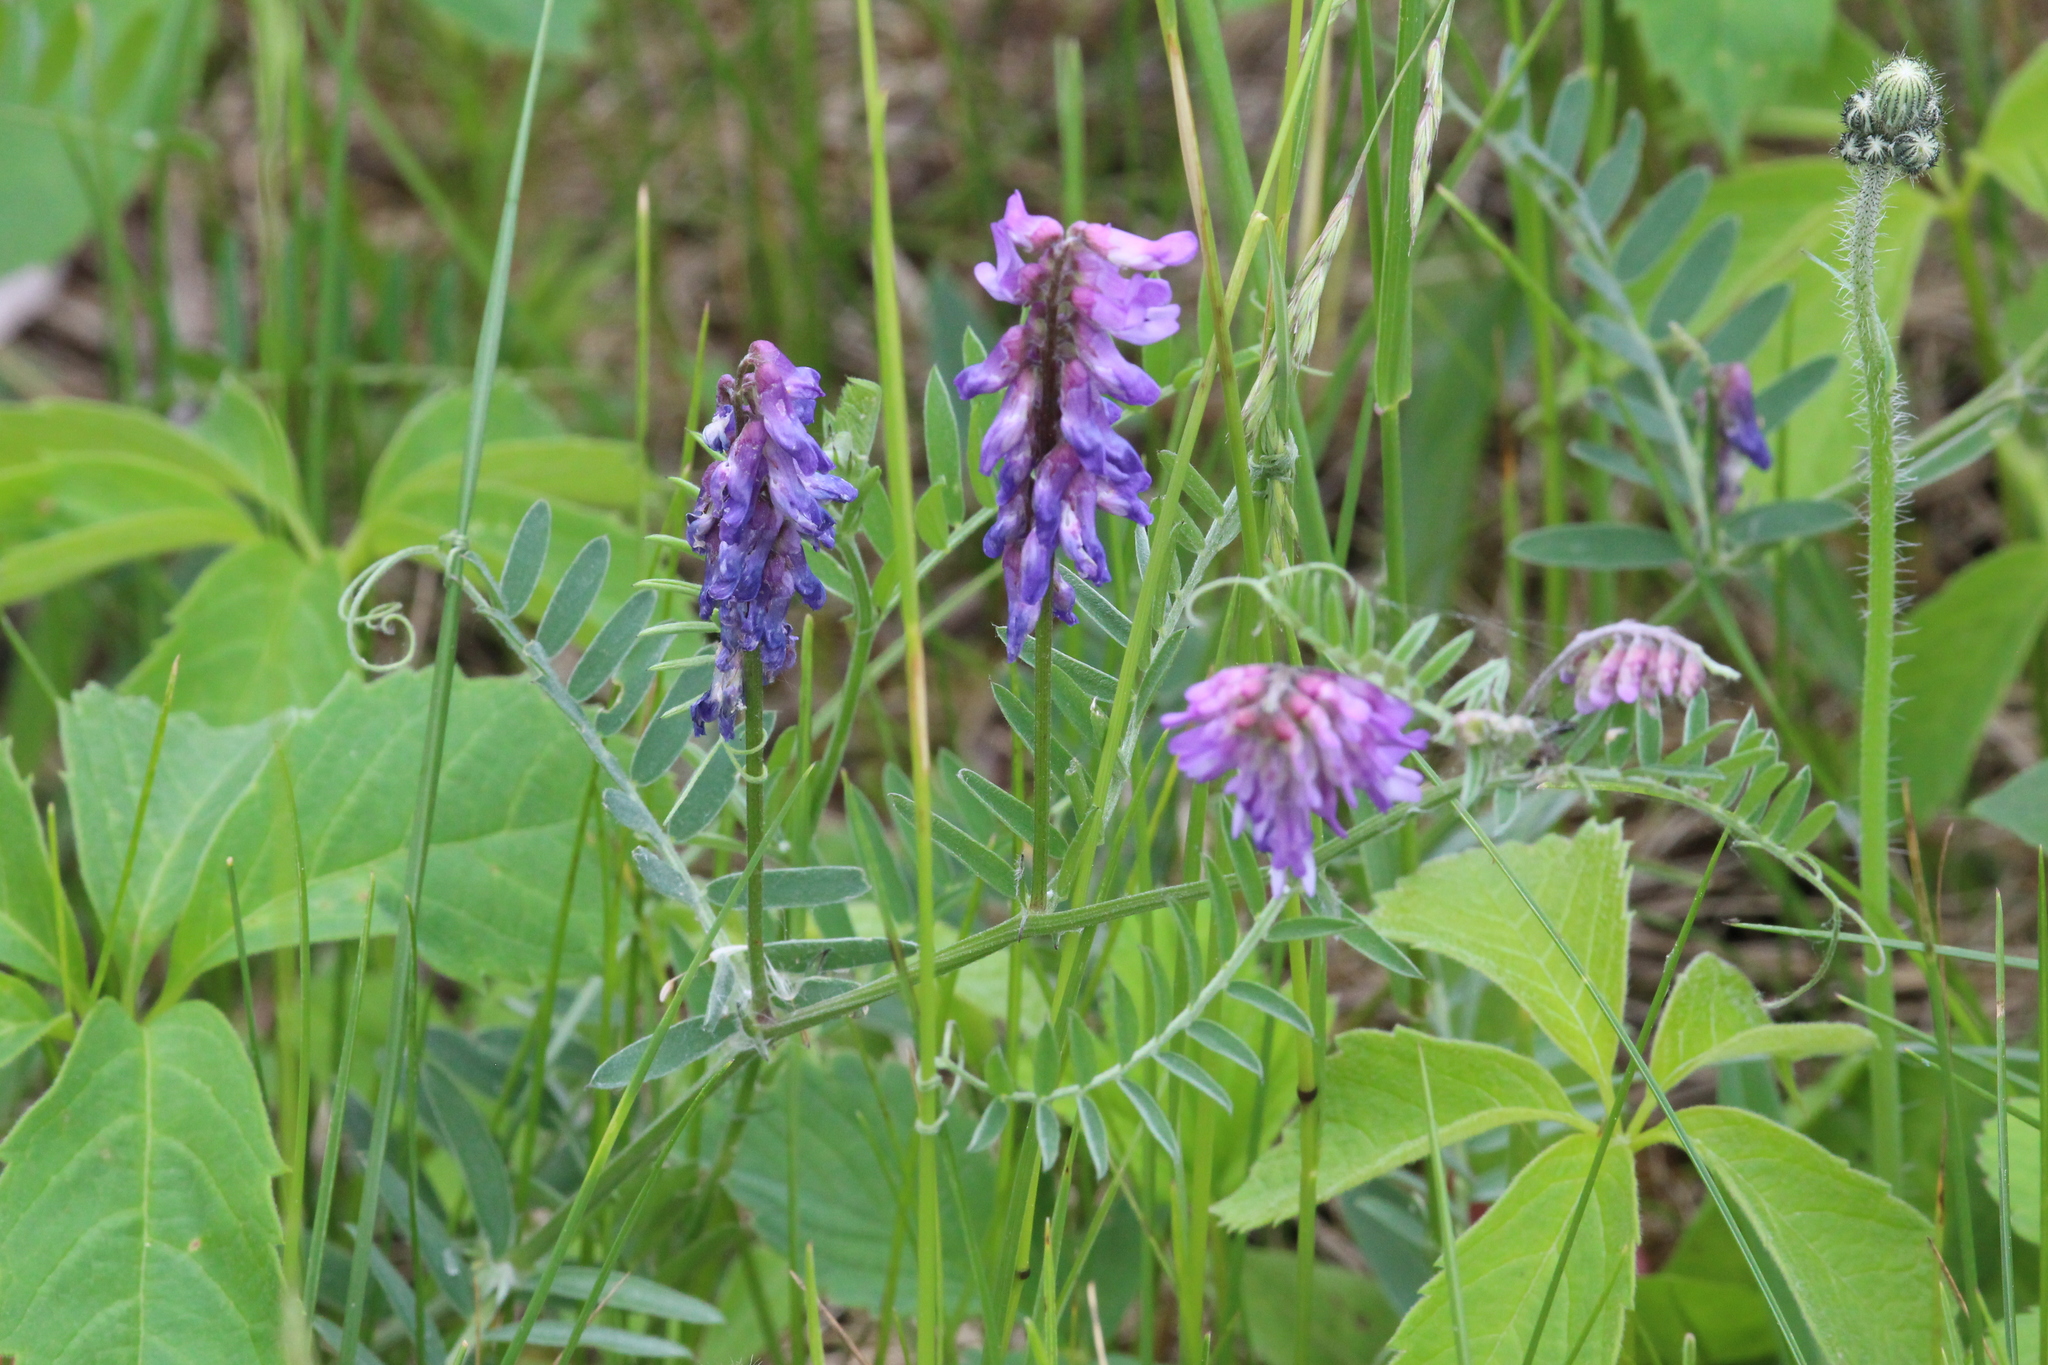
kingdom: Plantae
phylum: Tracheophyta
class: Magnoliopsida
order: Fabales
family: Fabaceae
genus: Vicia
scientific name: Vicia cracca
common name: Bird vetch
